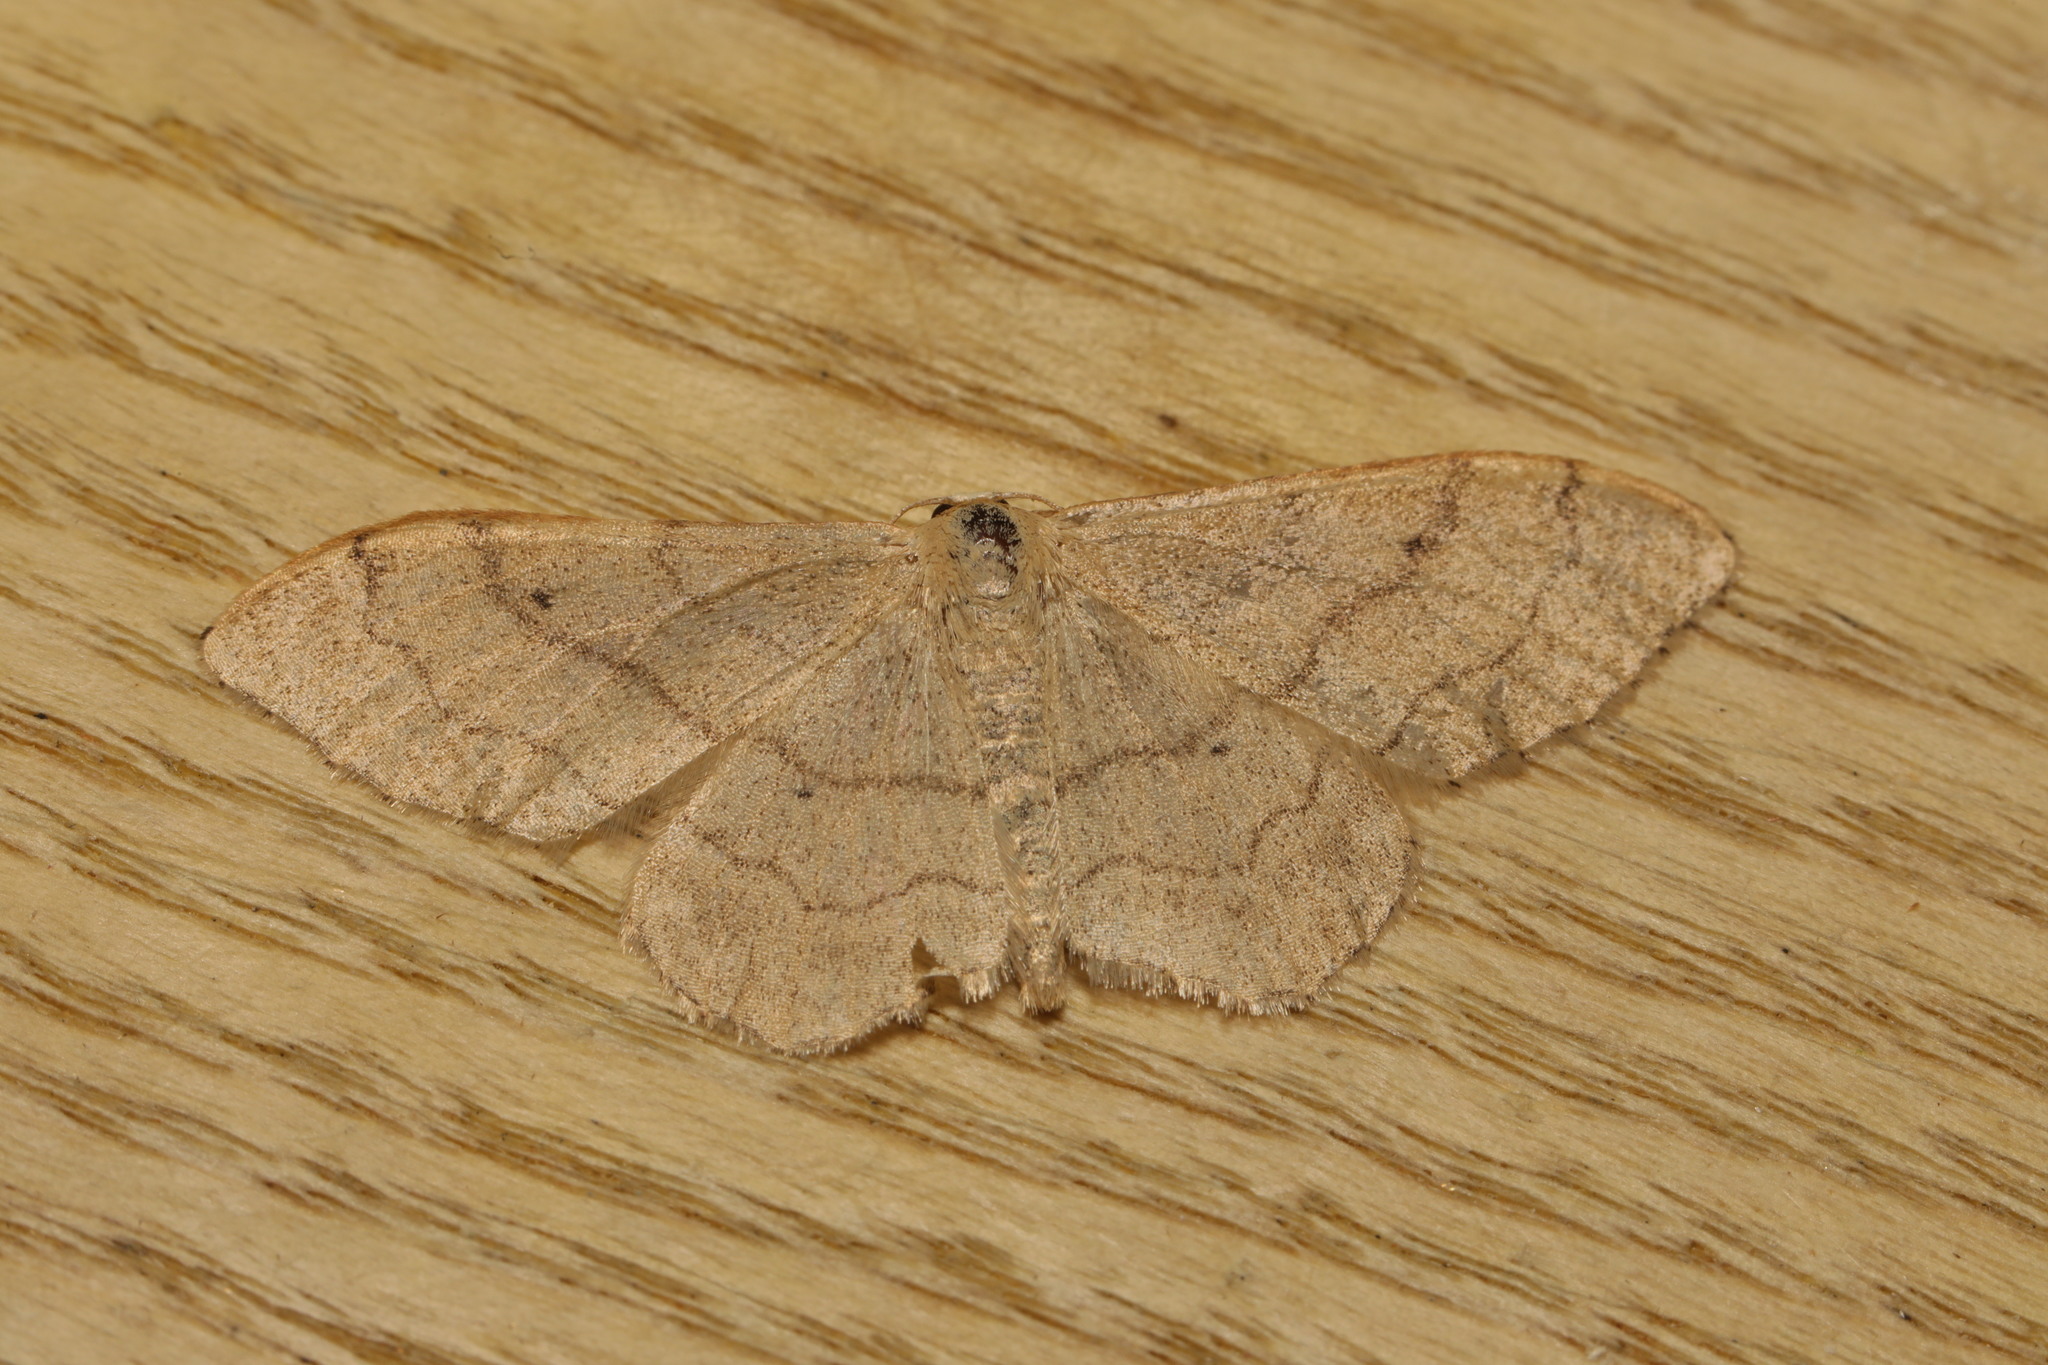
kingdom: Animalia
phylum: Arthropoda
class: Insecta
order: Lepidoptera
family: Geometridae
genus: Idaea
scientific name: Idaea aversata
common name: Riband wave
